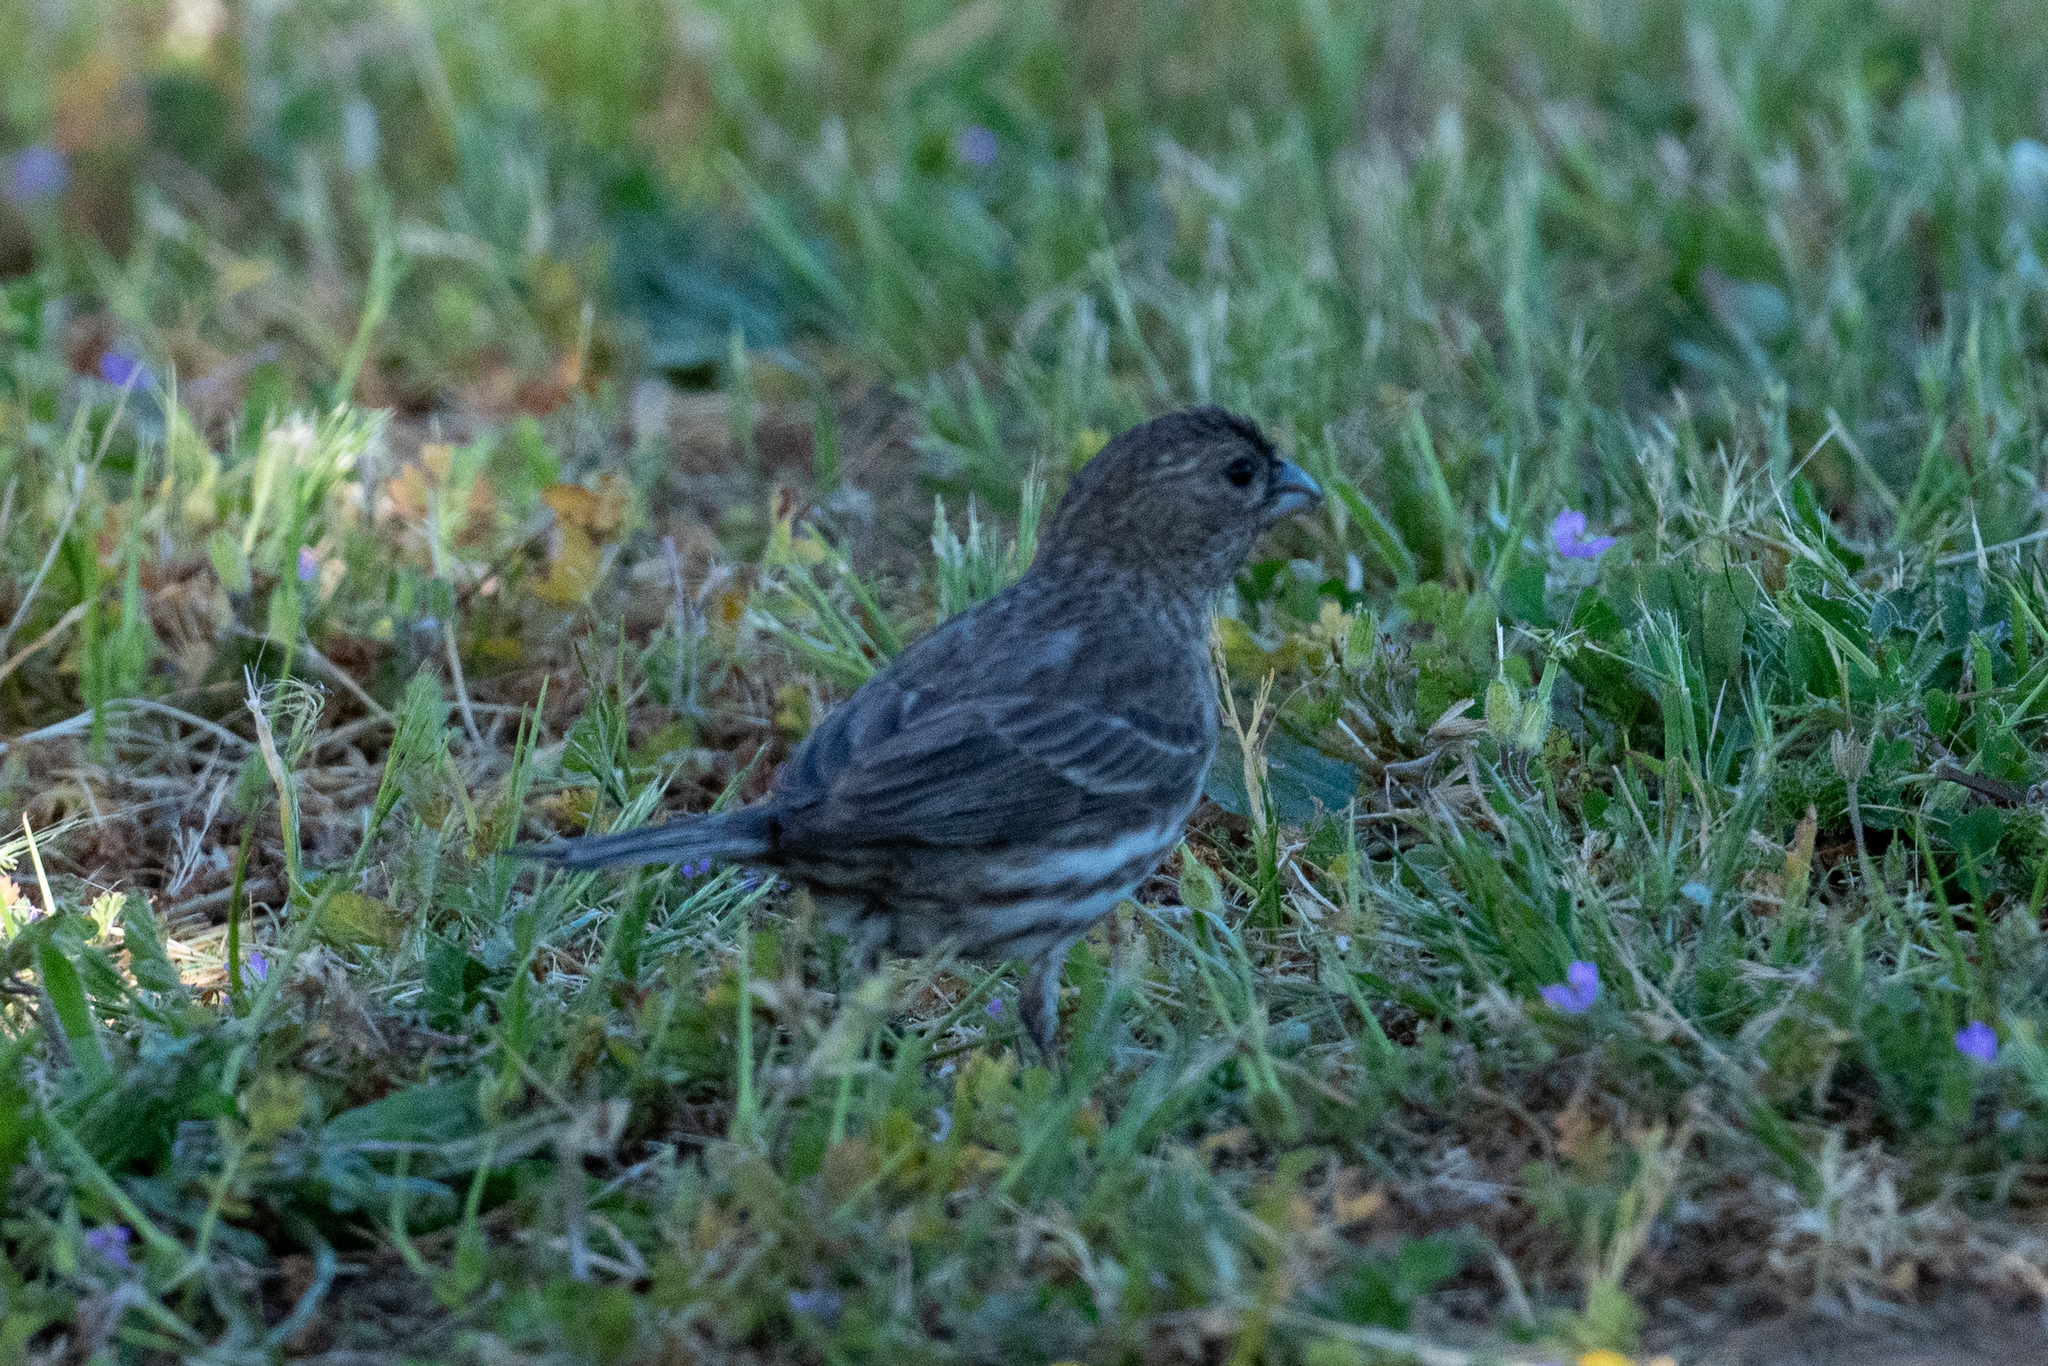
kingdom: Animalia
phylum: Chordata
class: Aves
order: Passeriformes
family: Fringillidae
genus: Haemorhous
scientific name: Haemorhous mexicanus
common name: House finch
